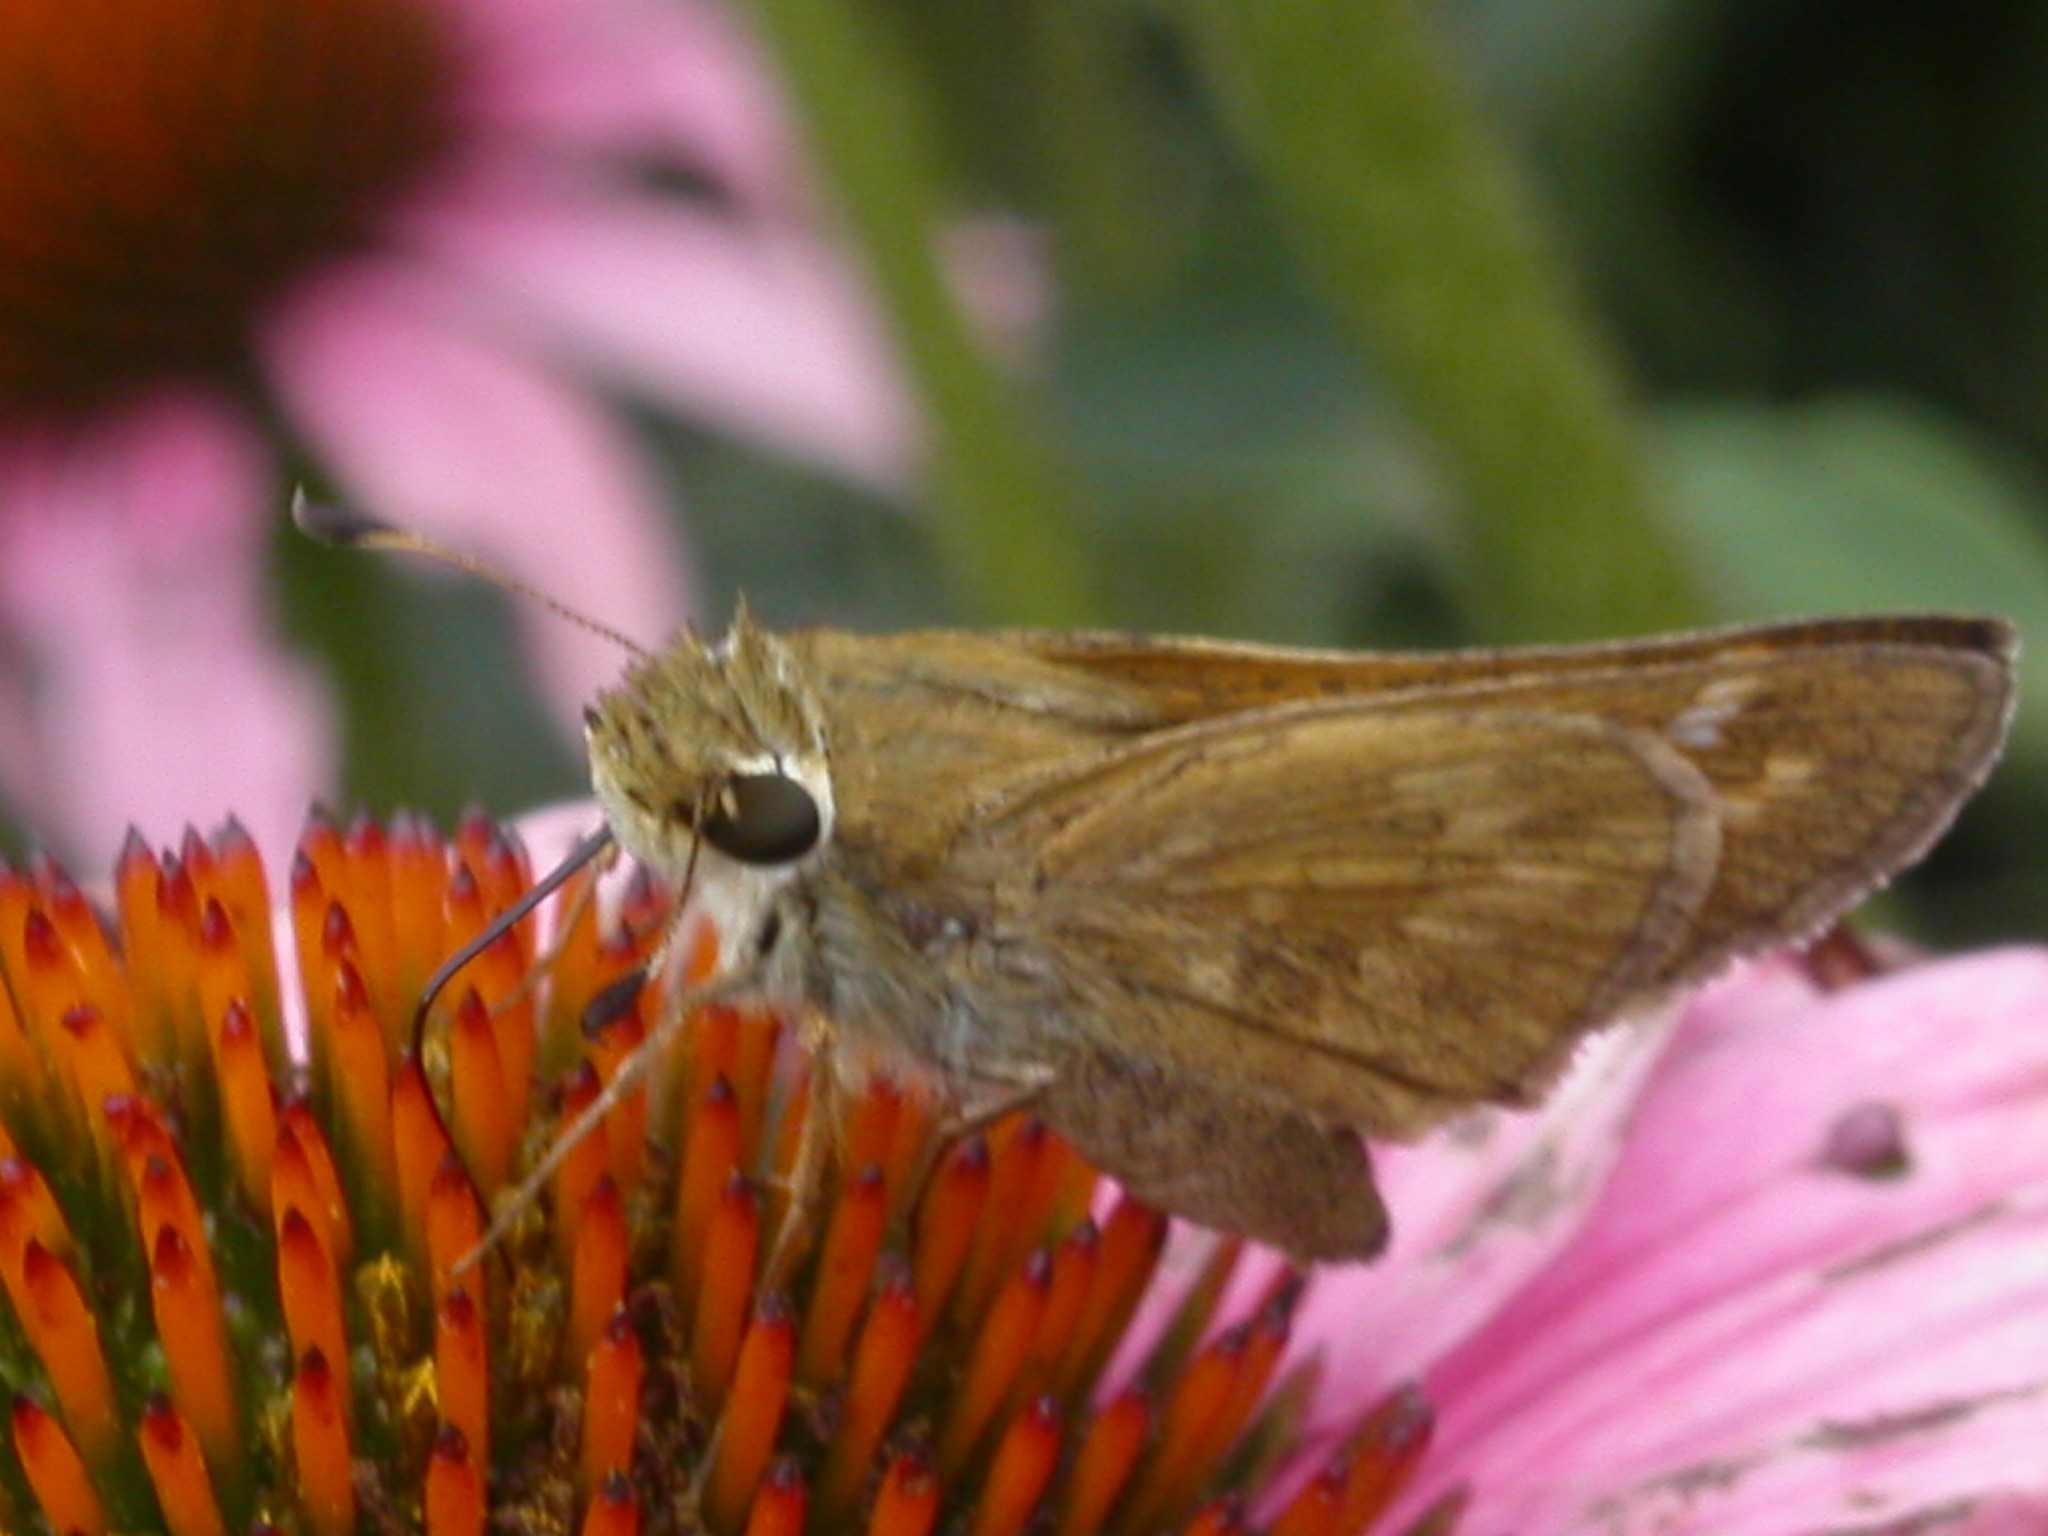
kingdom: Animalia
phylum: Arthropoda
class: Insecta
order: Lepidoptera
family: Hesperiidae
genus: Atalopedes
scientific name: Atalopedes
